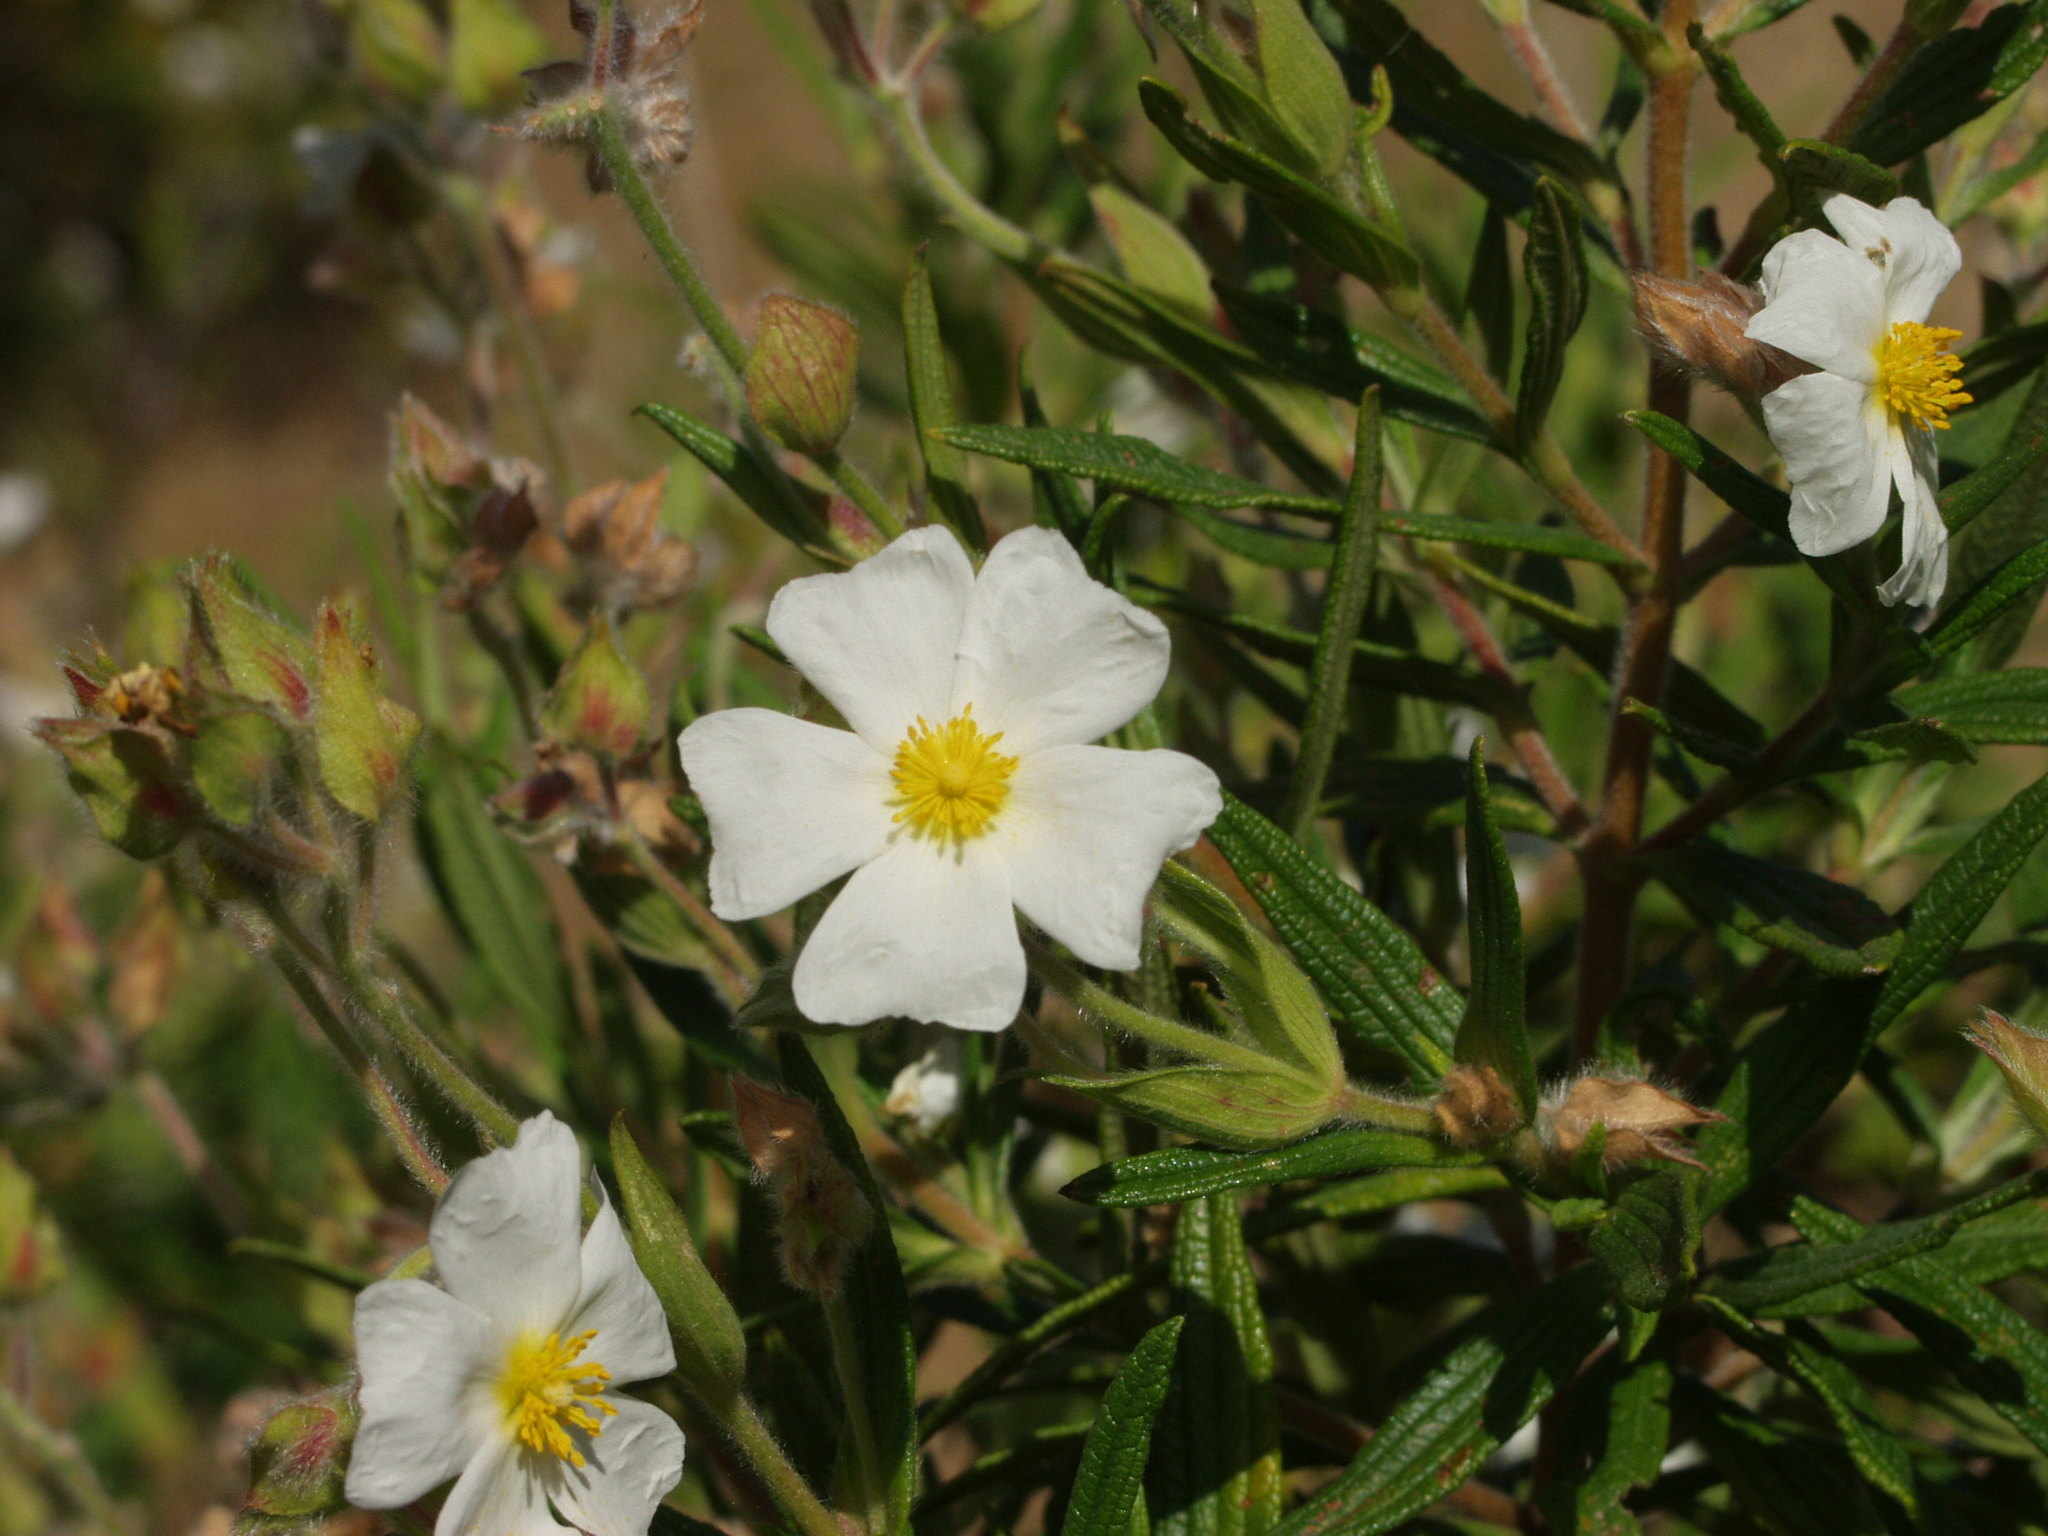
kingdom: Plantae
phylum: Tracheophyta
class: Magnoliopsida
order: Malvales
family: Cistaceae
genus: Cistus
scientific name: Cistus monspeliensis
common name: Montpelier cistus
